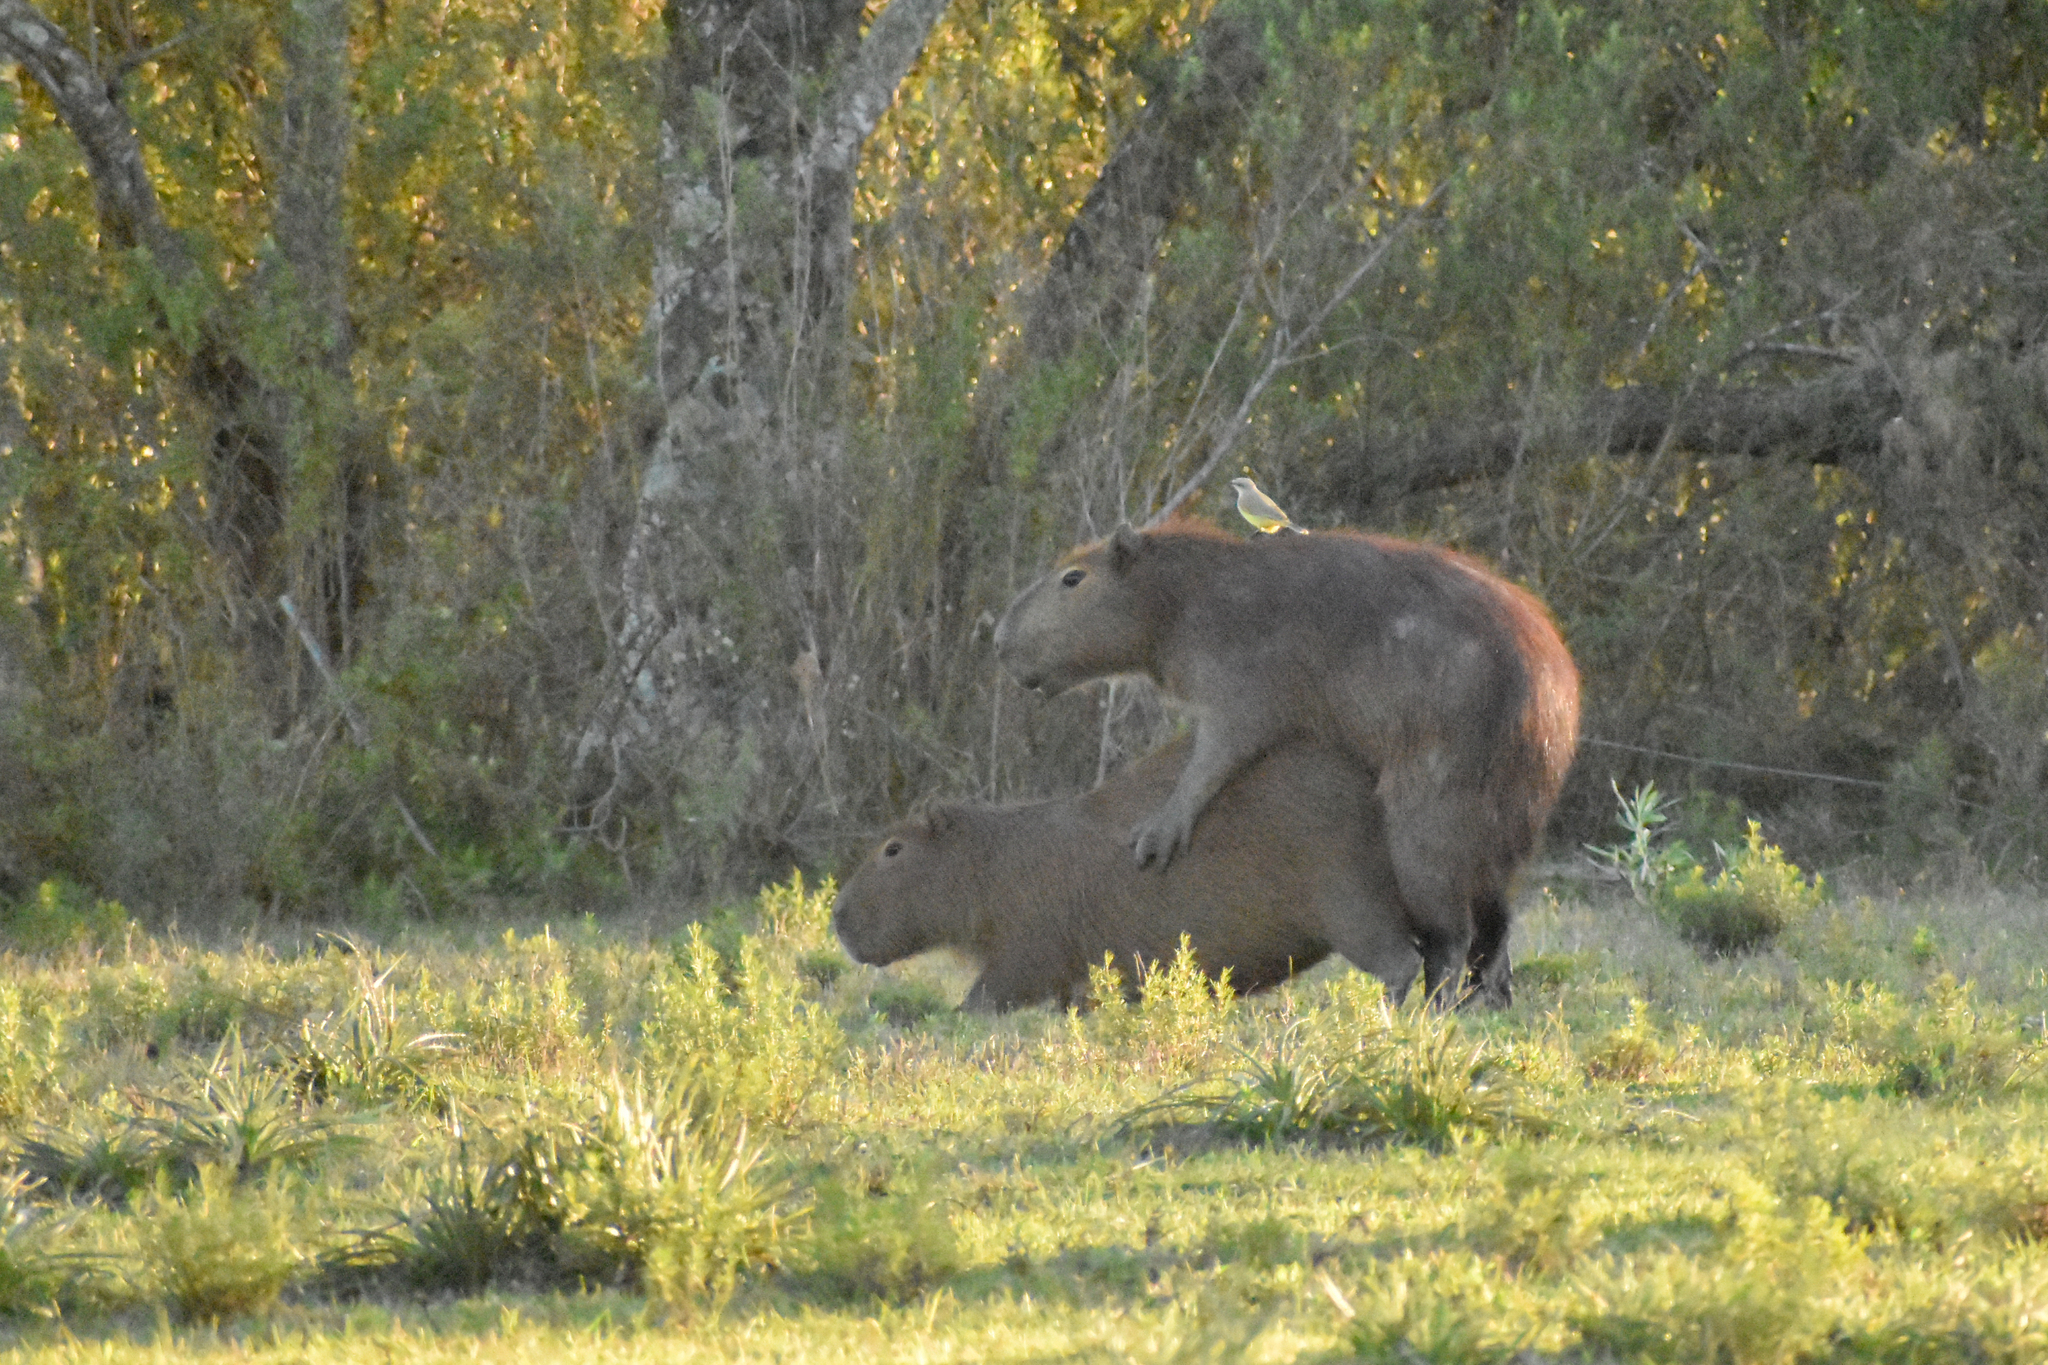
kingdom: Animalia
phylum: Chordata
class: Aves
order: Passeriformes
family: Tyrannidae
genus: Machetornis
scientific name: Machetornis rixosa
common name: Cattle tyrant
